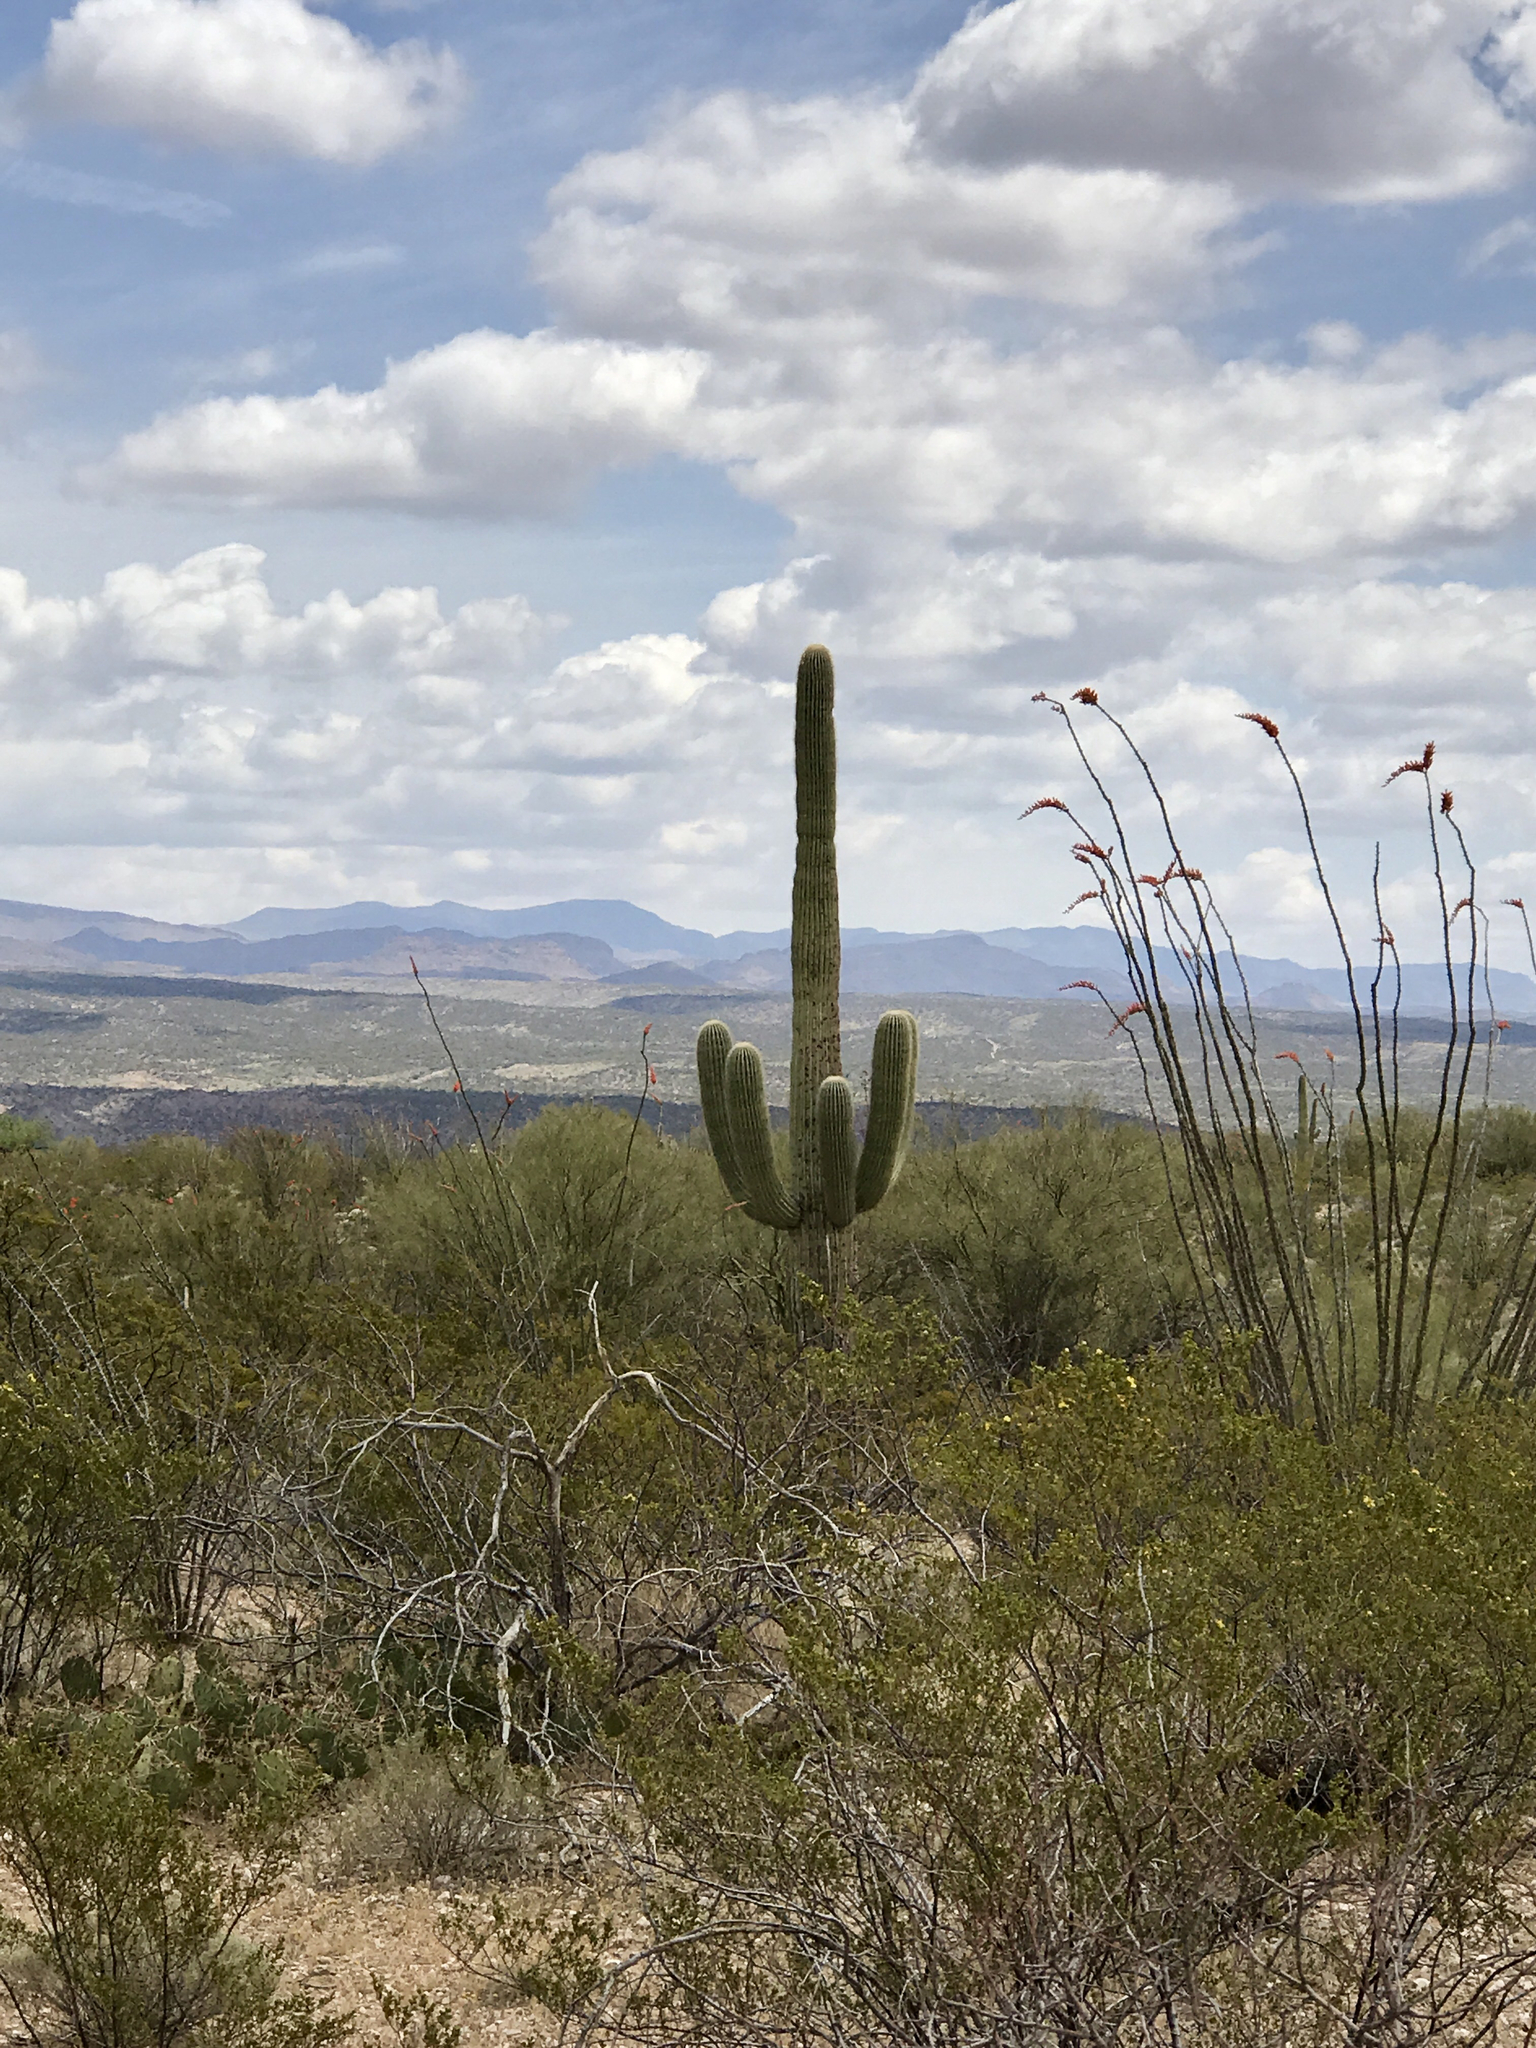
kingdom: Plantae
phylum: Tracheophyta
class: Magnoliopsida
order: Ericales
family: Fouquieriaceae
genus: Fouquieria
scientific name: Fouquieria splendens
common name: Vine-cactus
